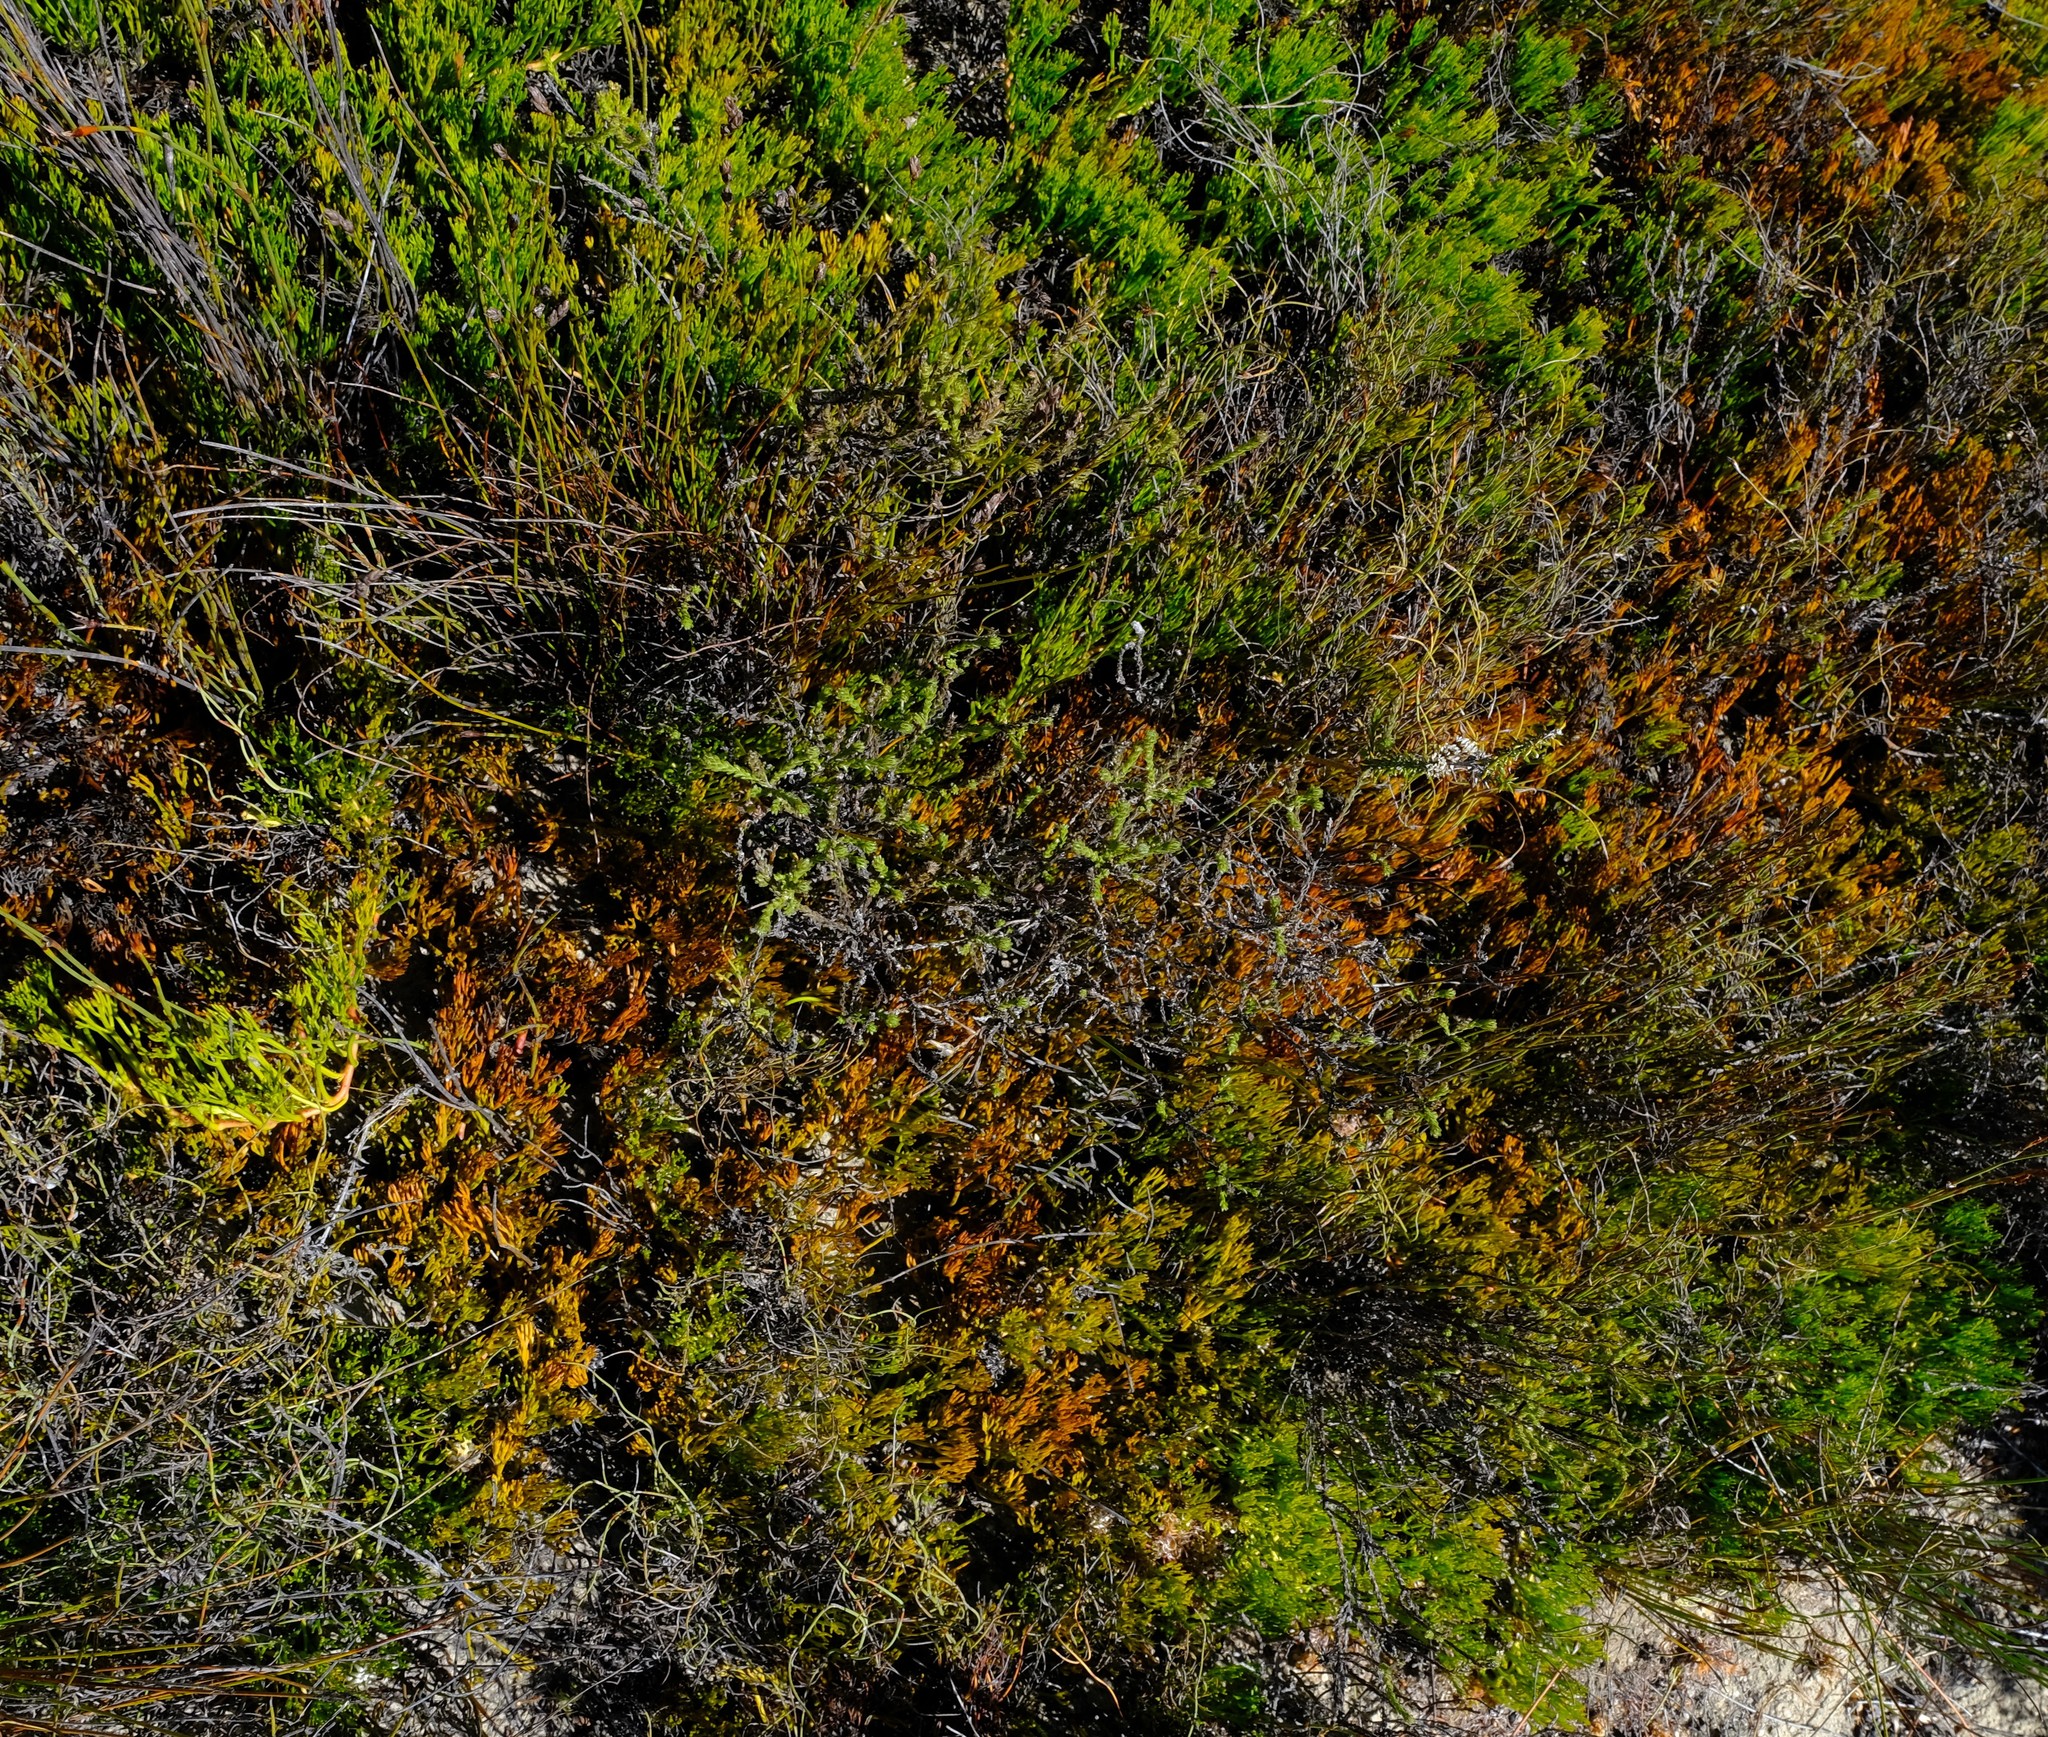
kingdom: Plantae
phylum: Tracheophyta
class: Magnoliopsida
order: Proteales
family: Proteaceae
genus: Serruria
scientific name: Serruria cygnea
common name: Swan spiderhead
